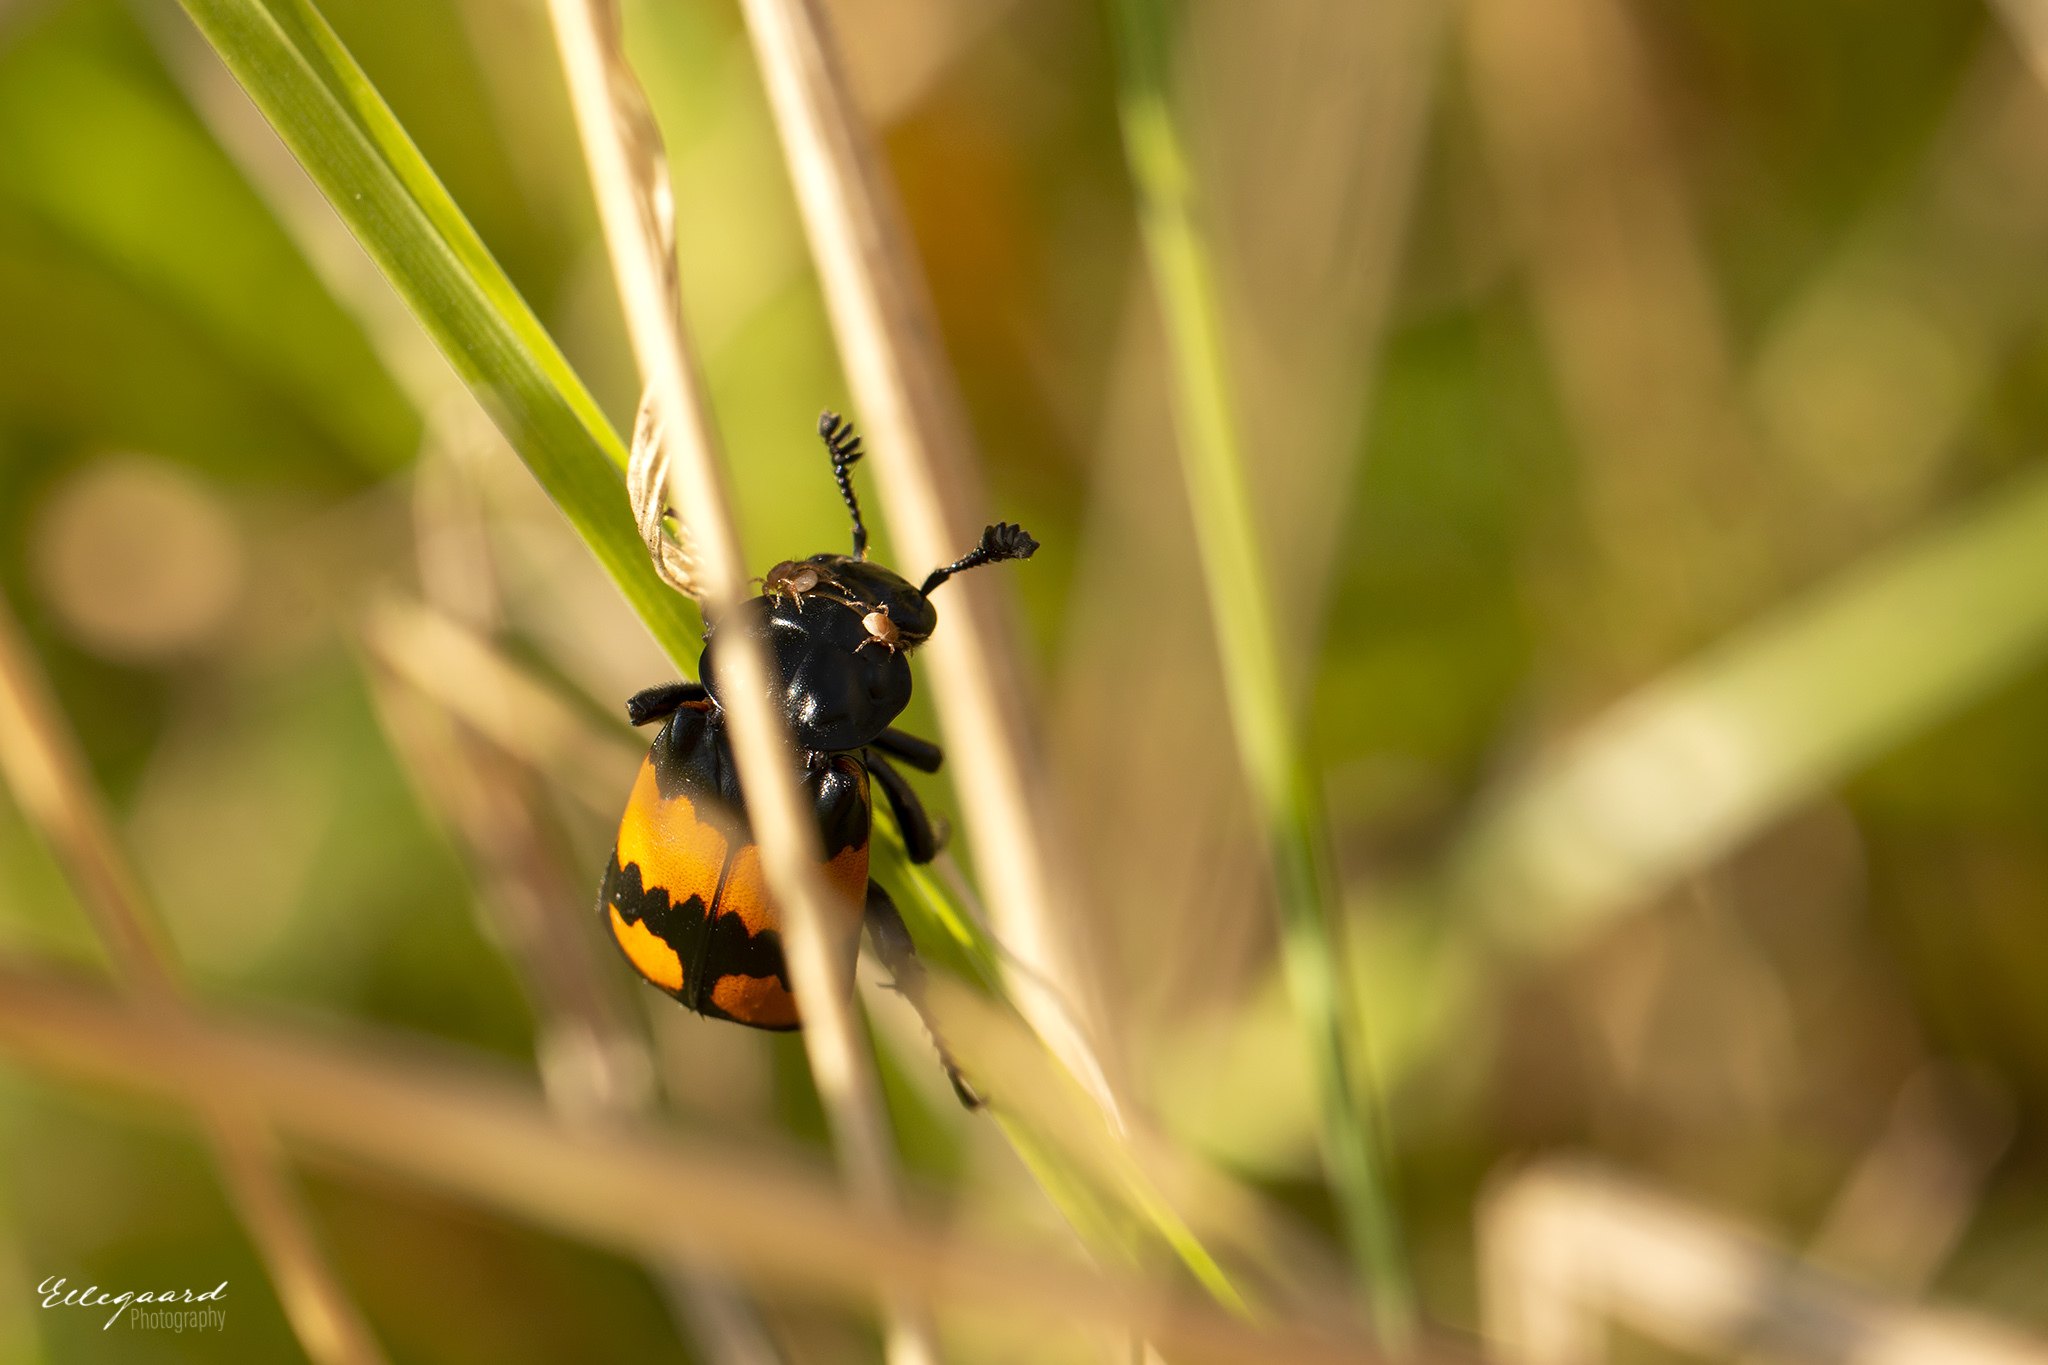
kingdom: Animalia
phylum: Arthropoda
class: Insecta
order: Coleoptera
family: Staphylinidae
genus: Nicrophorus
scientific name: Nicrophorus vespilloides
